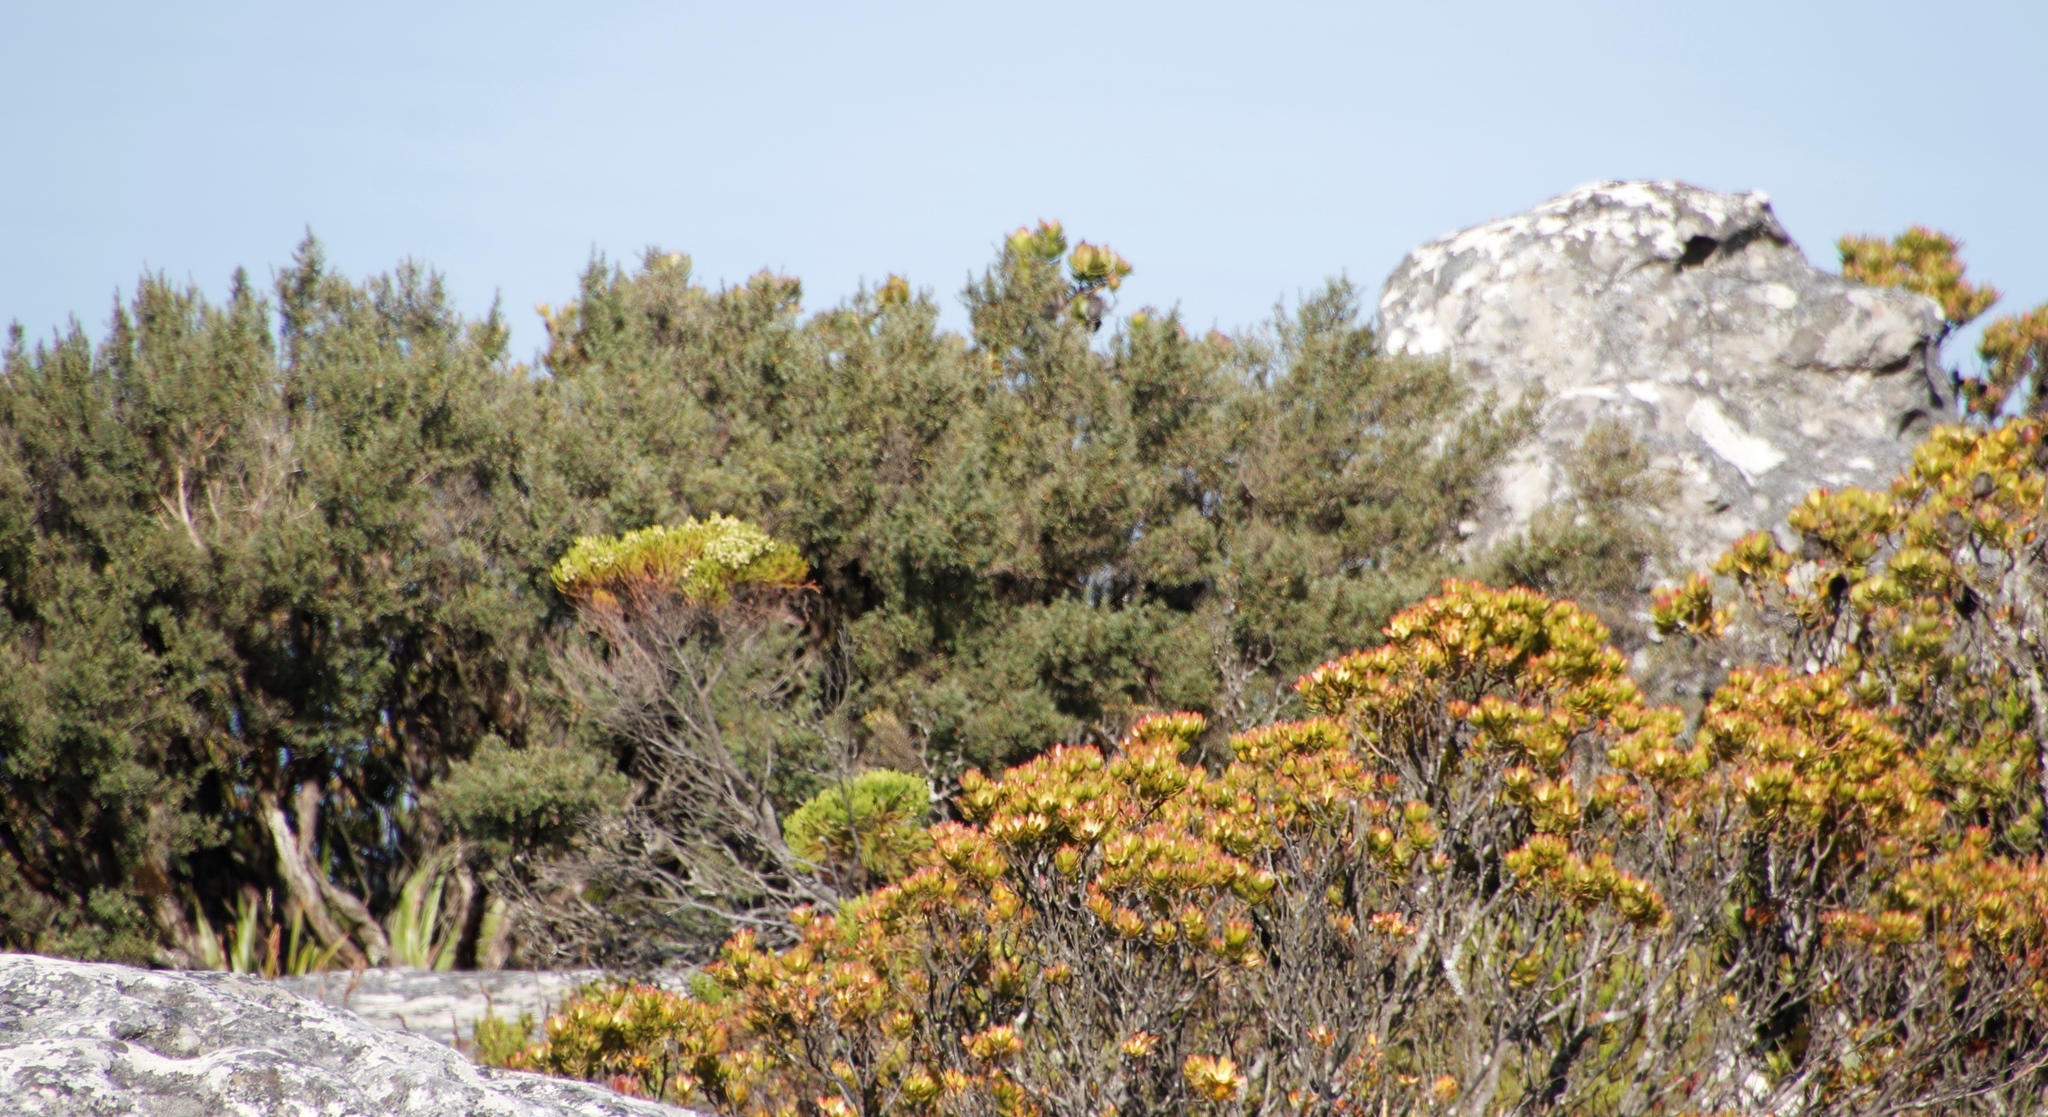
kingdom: Plantae
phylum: Tracheophyta
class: Magnoliopsida
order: Proteales
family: Proteaceae
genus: Leucadendron
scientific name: Leucadendron strobilinum
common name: Mountain rose
